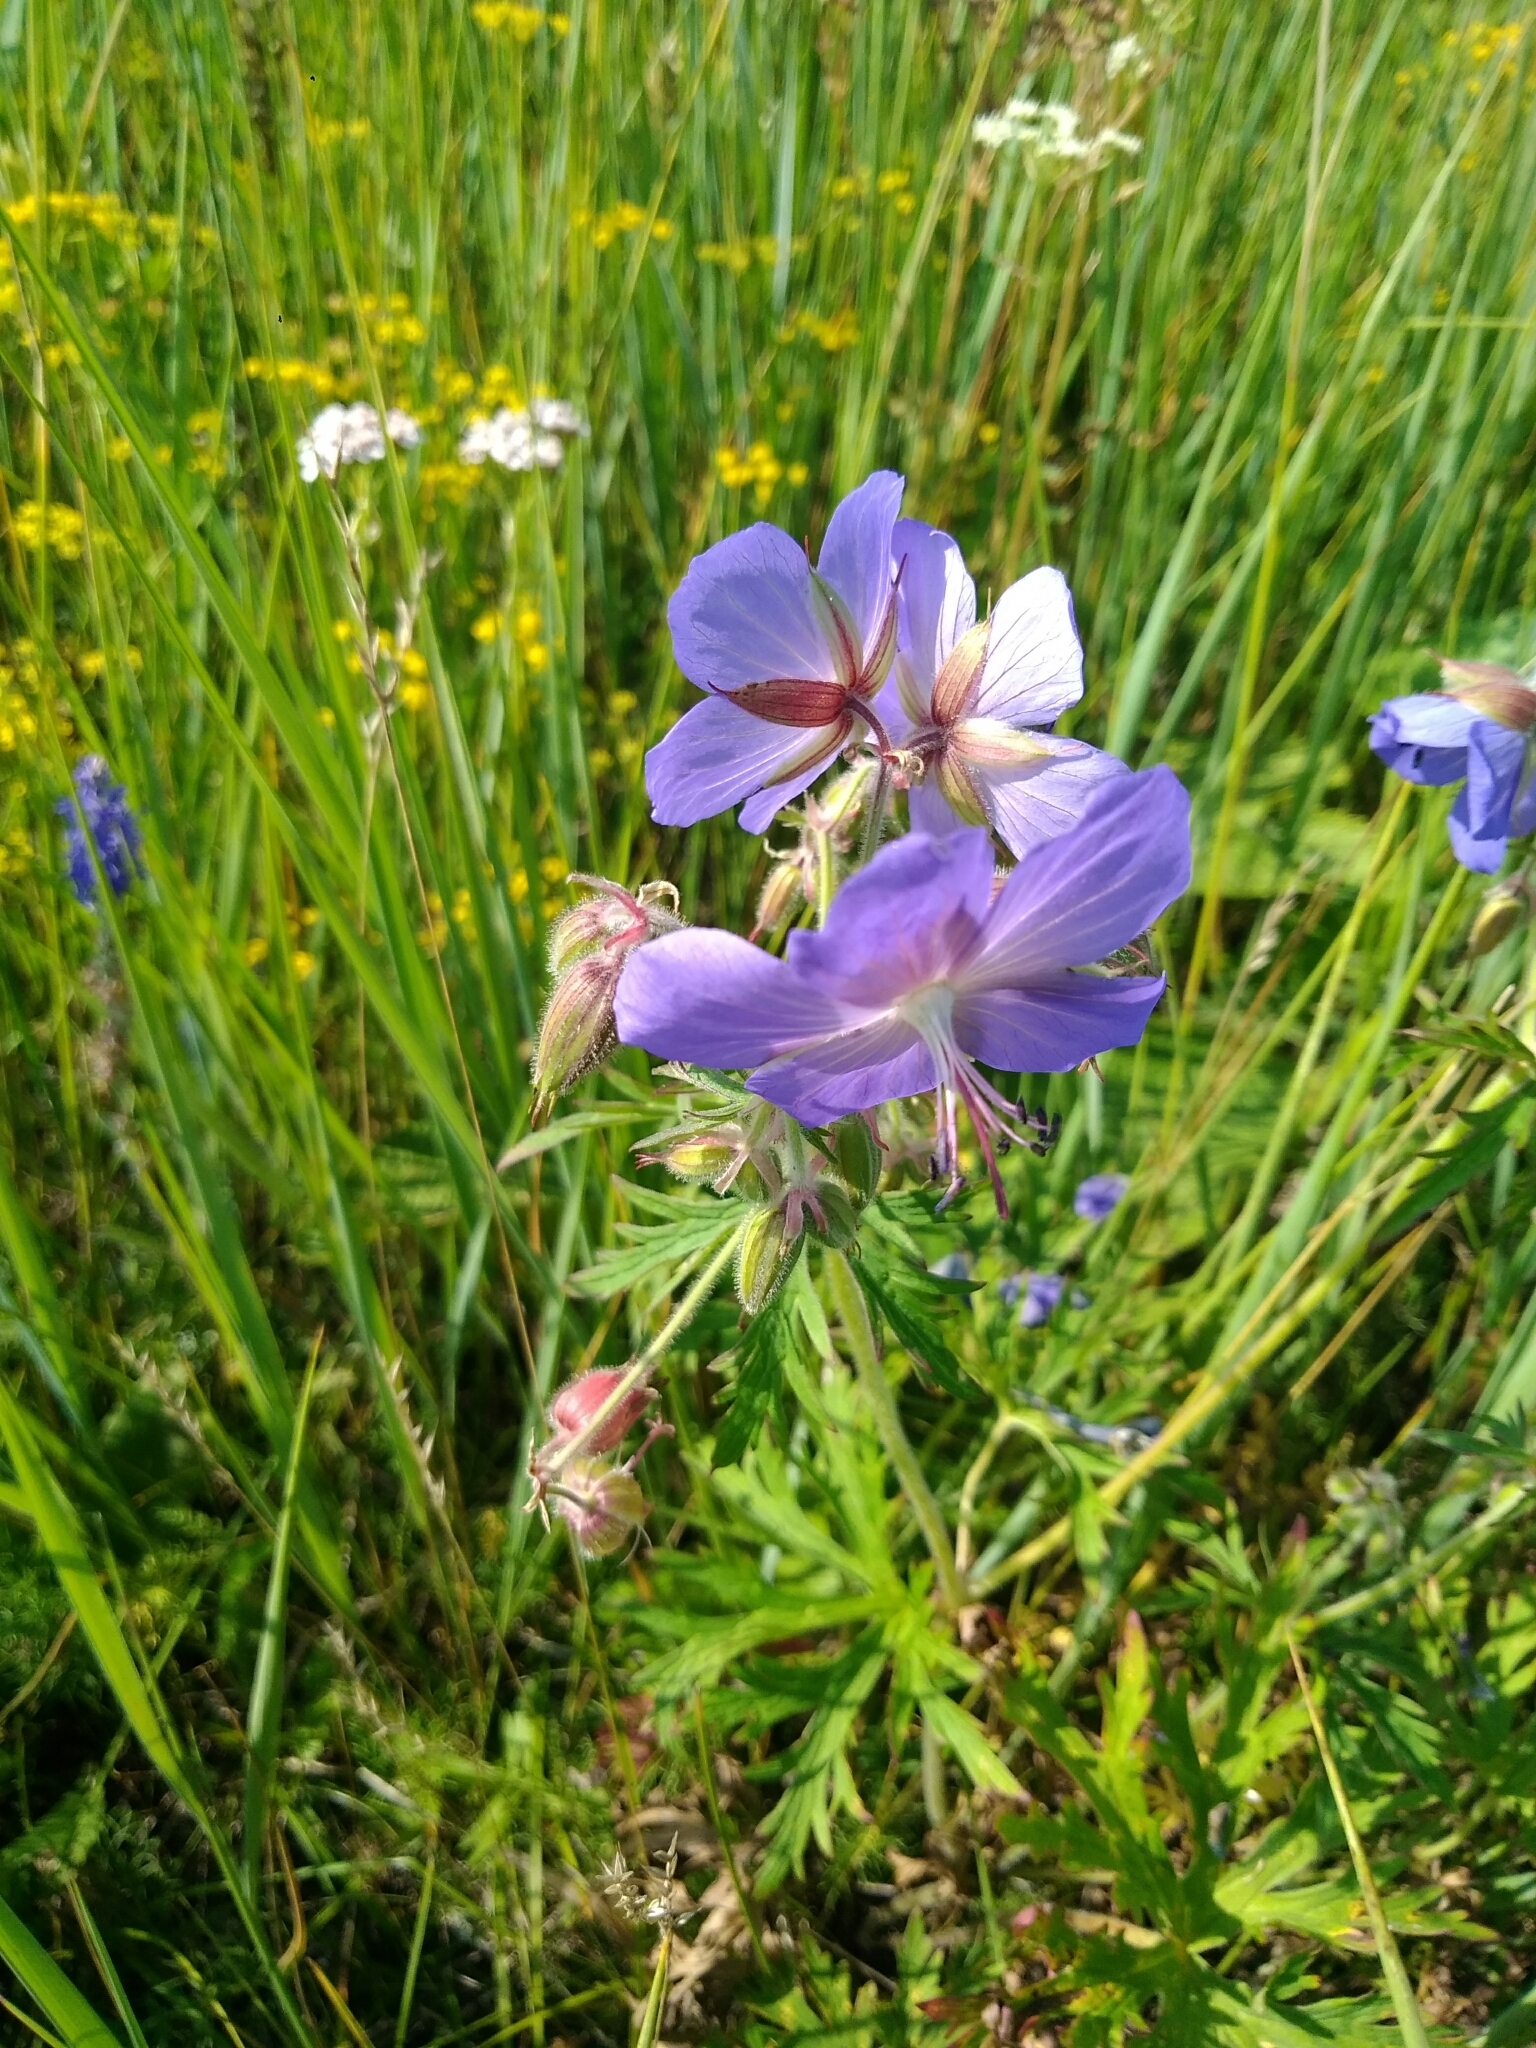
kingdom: Plantae
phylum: Tracheophyta
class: Magnoliopsida
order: Geraniales
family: Geraniaceae
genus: Geranium
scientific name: Geranium pratense
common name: Meadow crane's-bill
